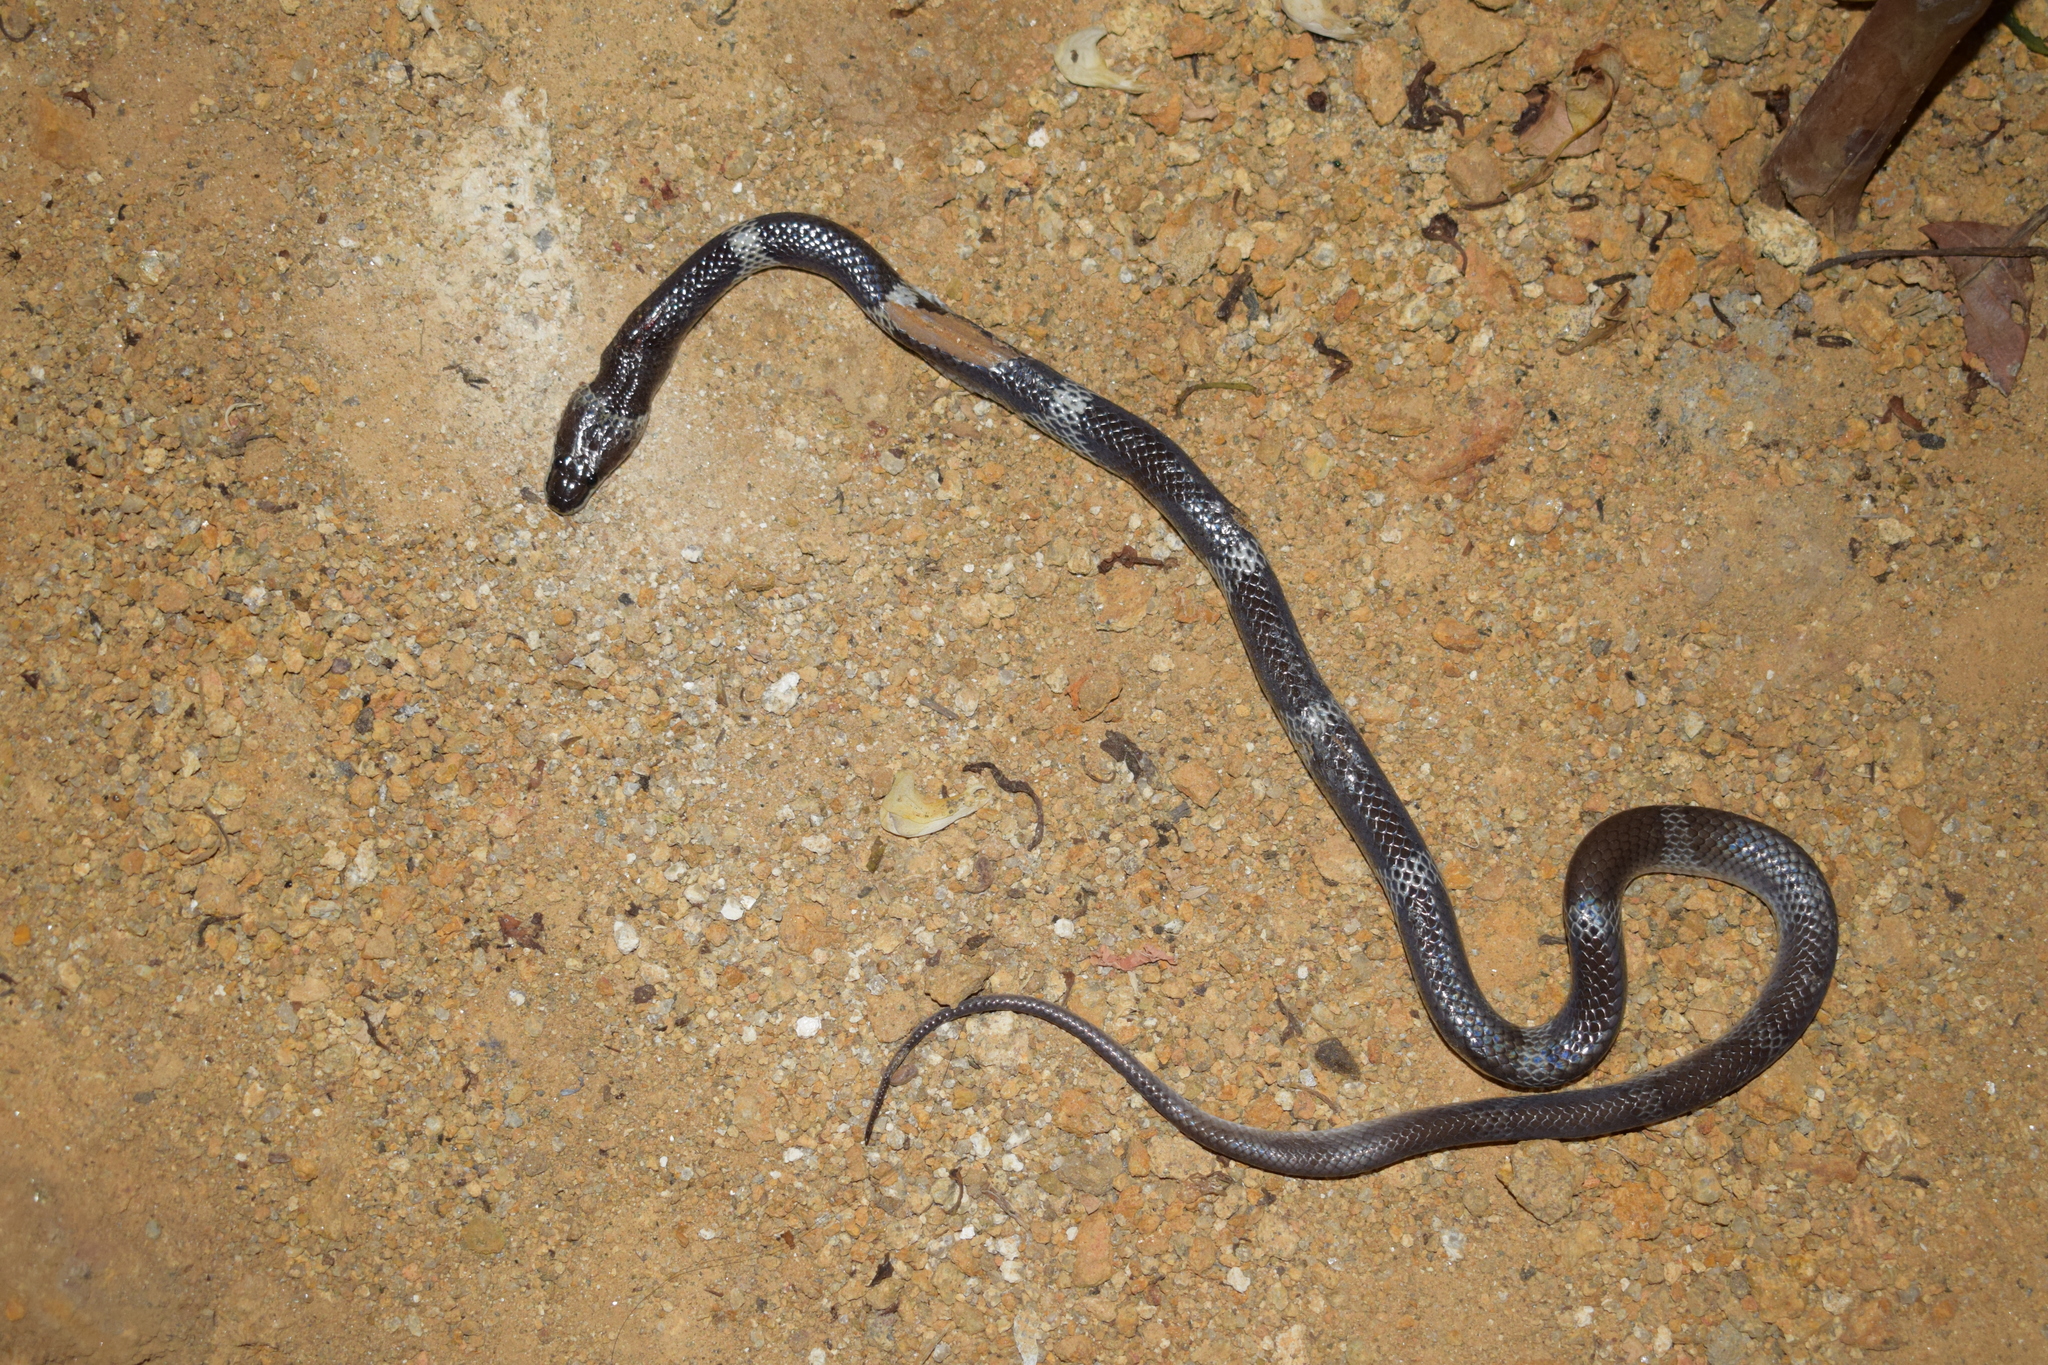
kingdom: Animalia
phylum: Chordata
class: Squamata
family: Colubridae
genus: Lycodon
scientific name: Lycodon aulicus
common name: Common wolf snake
